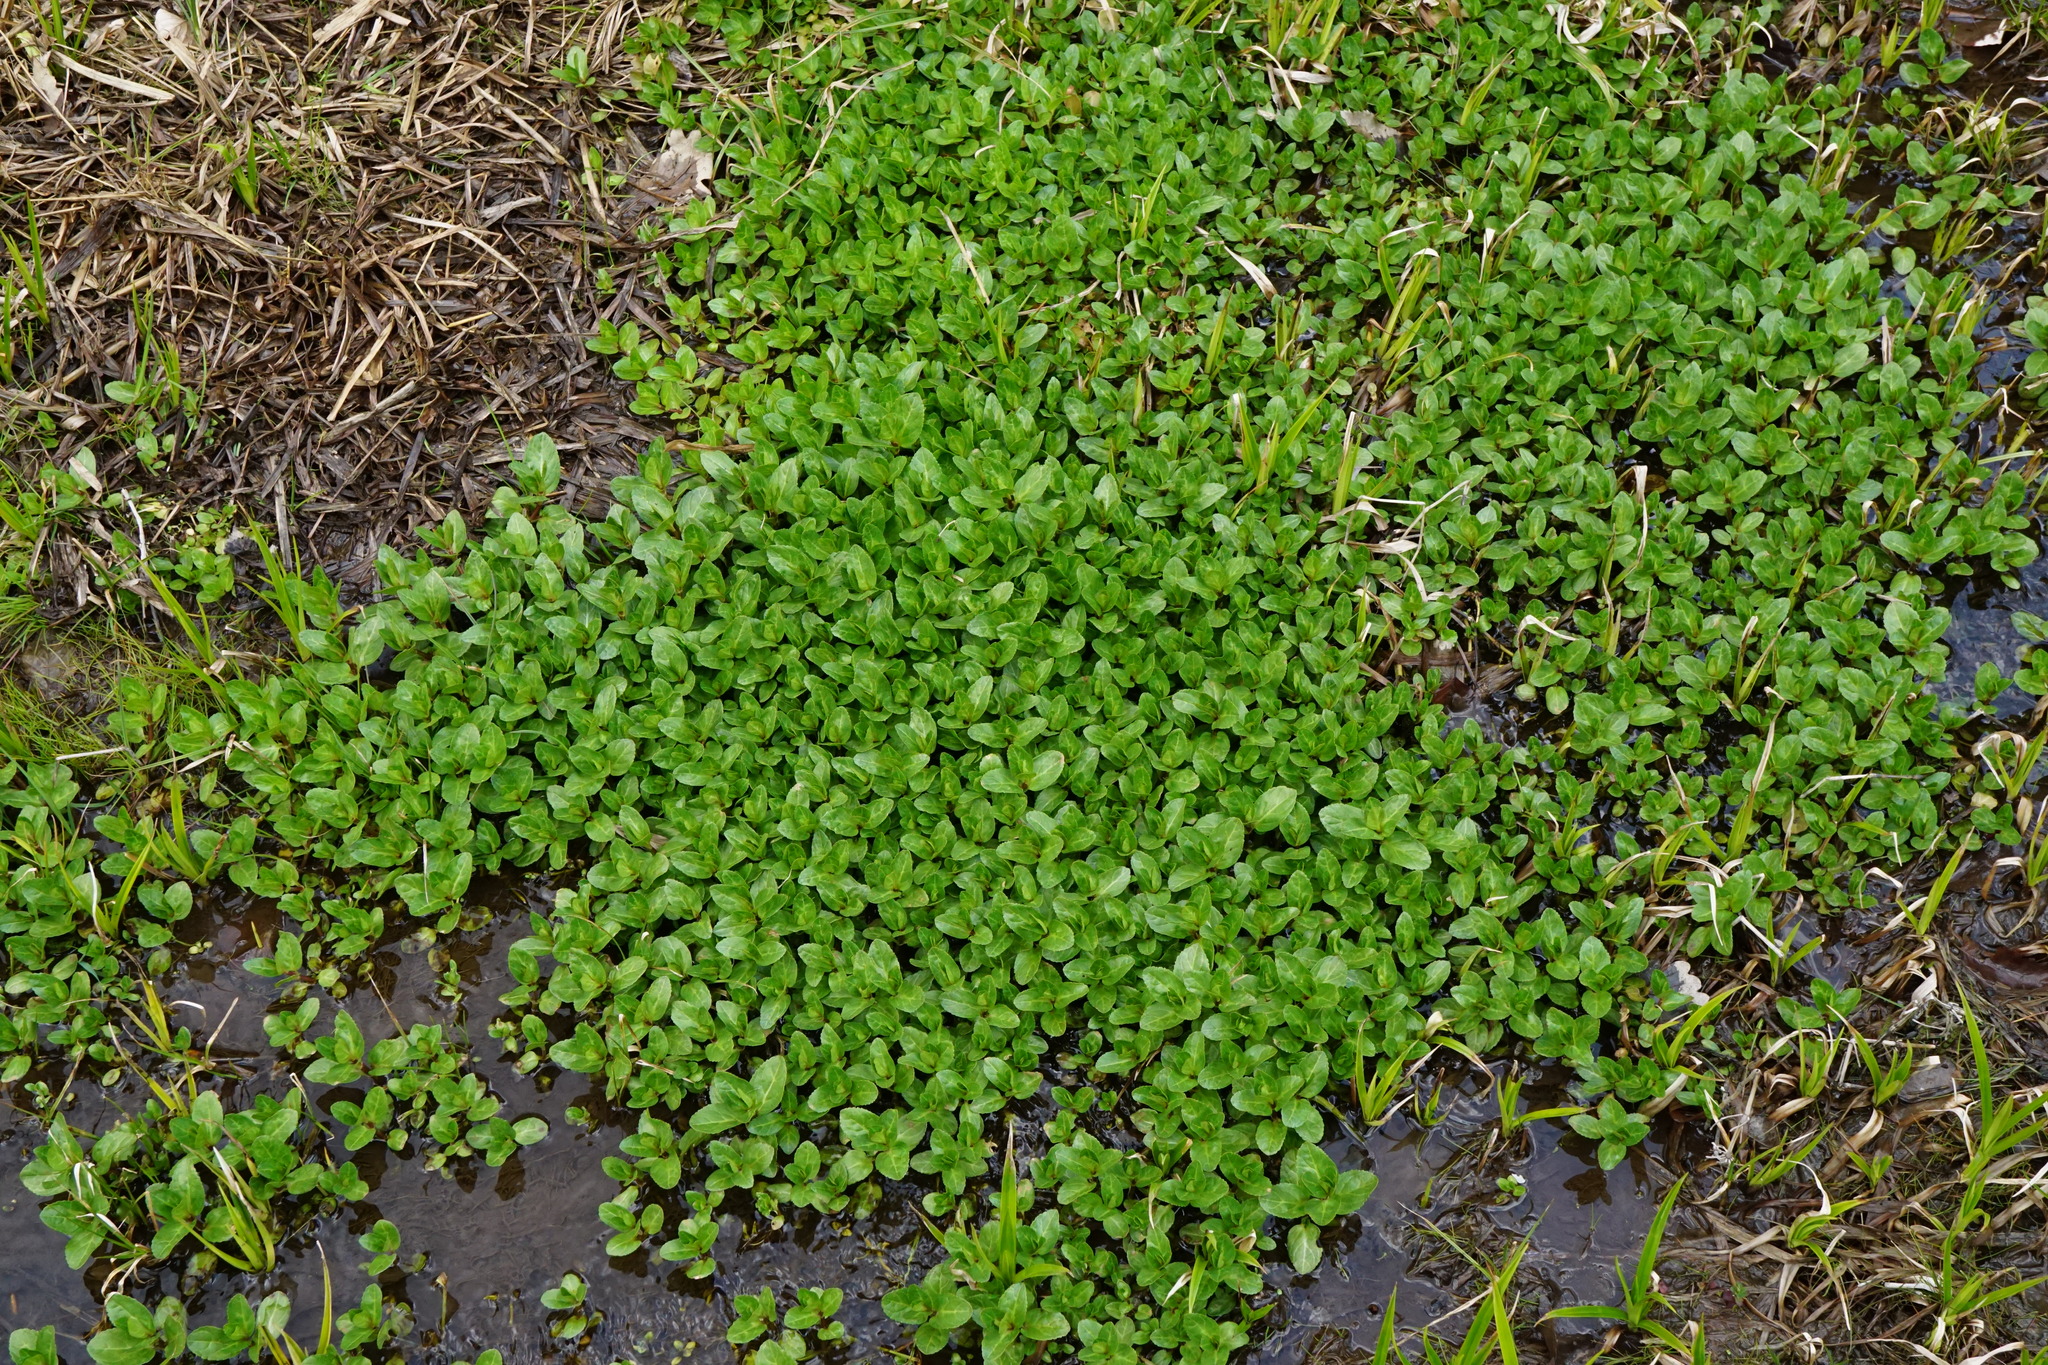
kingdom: Plantae
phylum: Tracheophyta
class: Magnoliopsida
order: Lamiales
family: Plantaginaceae
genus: Veronica
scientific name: Veronica beccabunga
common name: Brooklime
